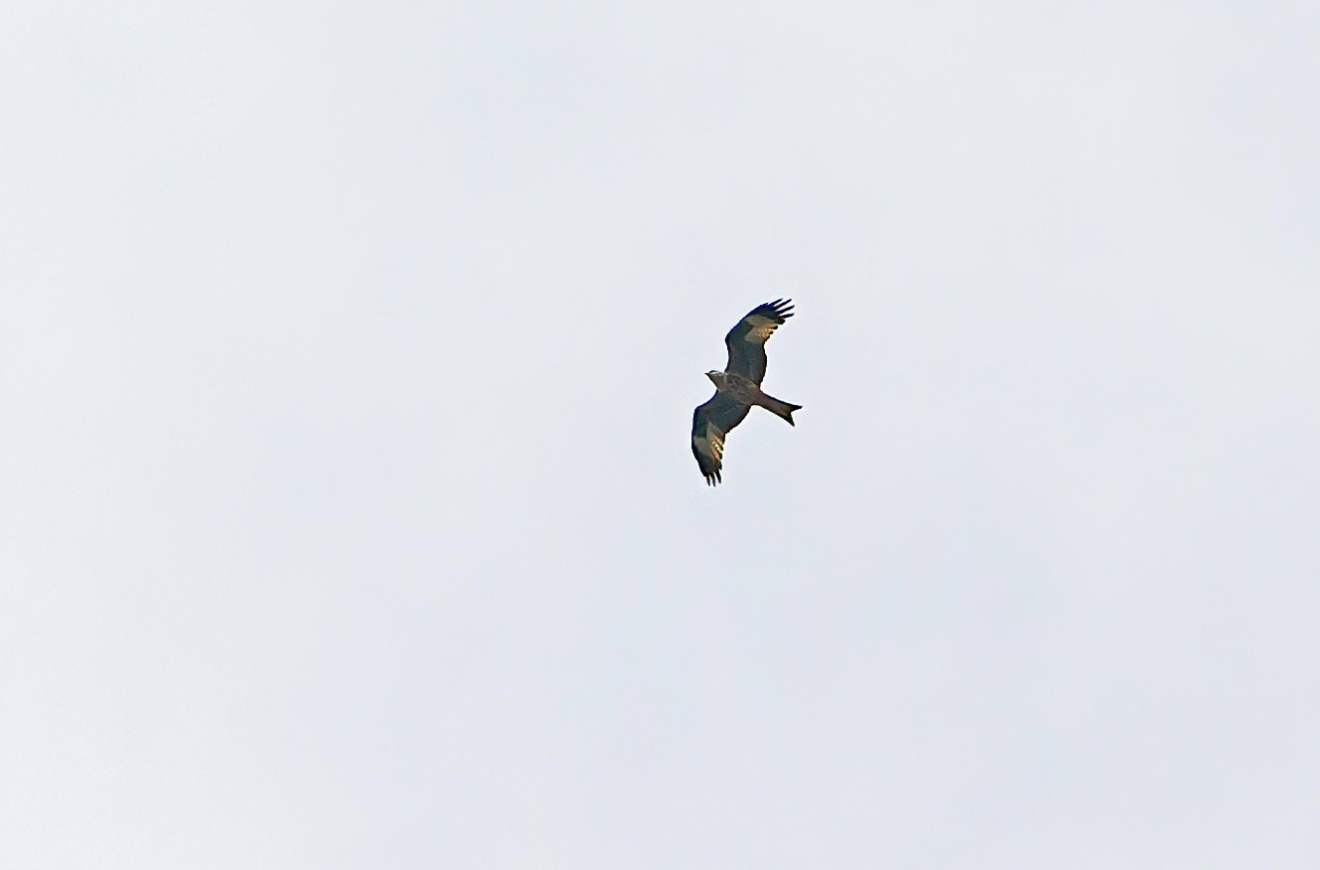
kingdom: Animalia
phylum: Chordata
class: Aves
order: Accipitriformes
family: Accipitridae
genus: Milvus
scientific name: Milvus milvus
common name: Red kite
